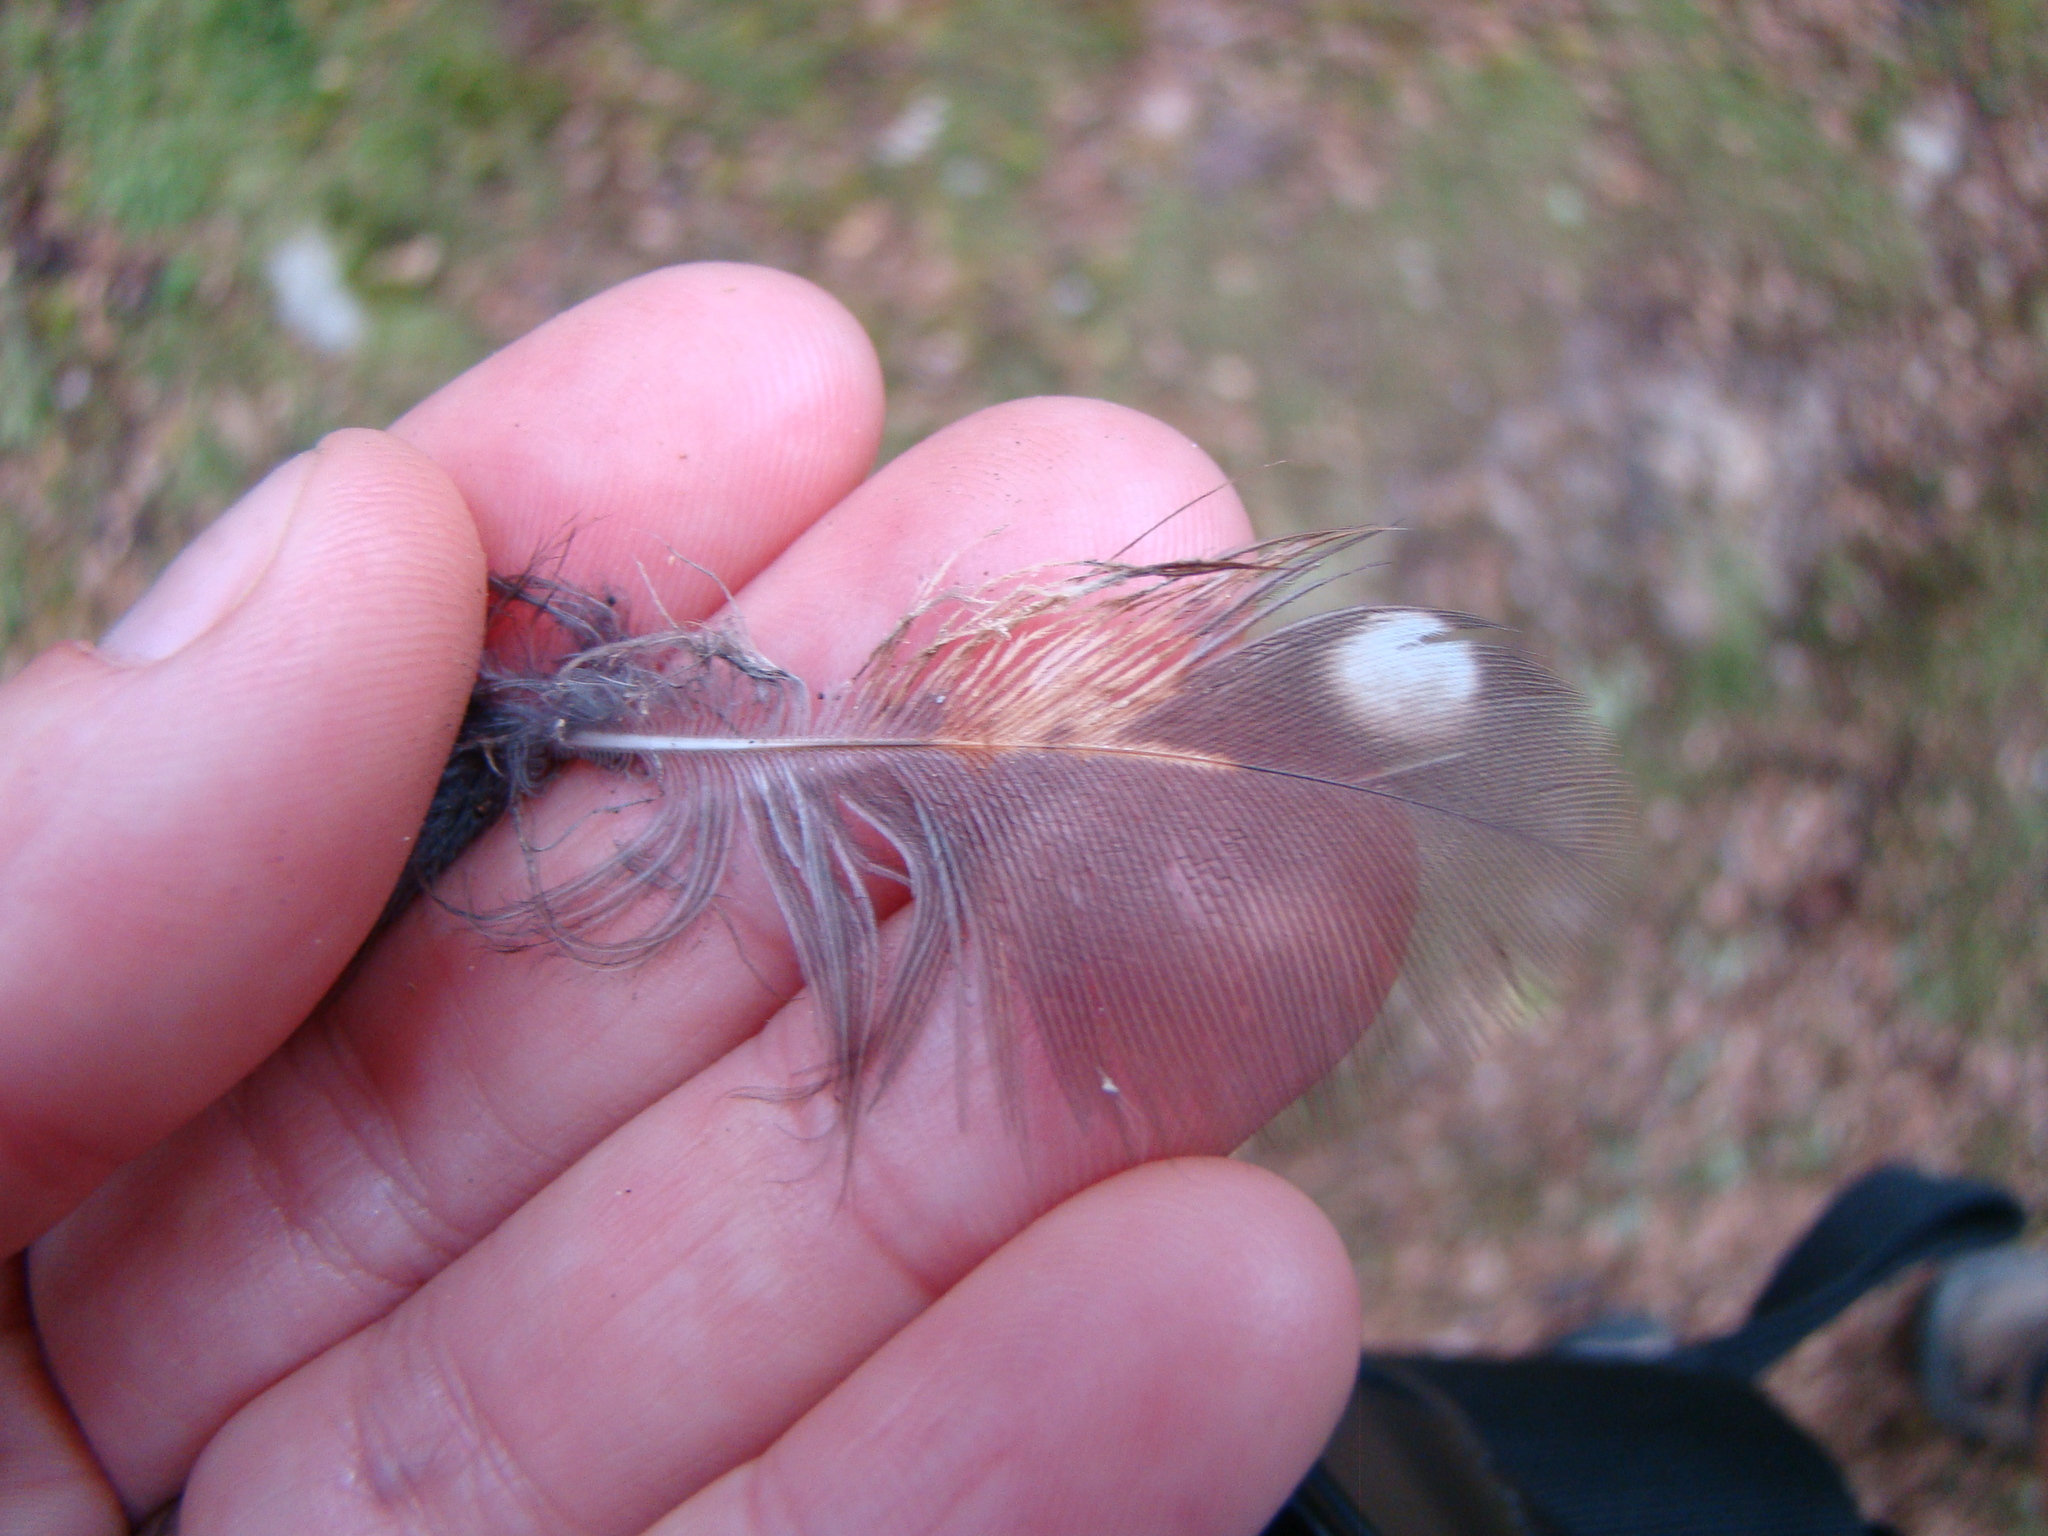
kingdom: Animalia
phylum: Chordata
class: Aves
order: Strigiformes
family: Strigidae
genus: Ninox
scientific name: Ninox novaeseelandiae
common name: Morepork
